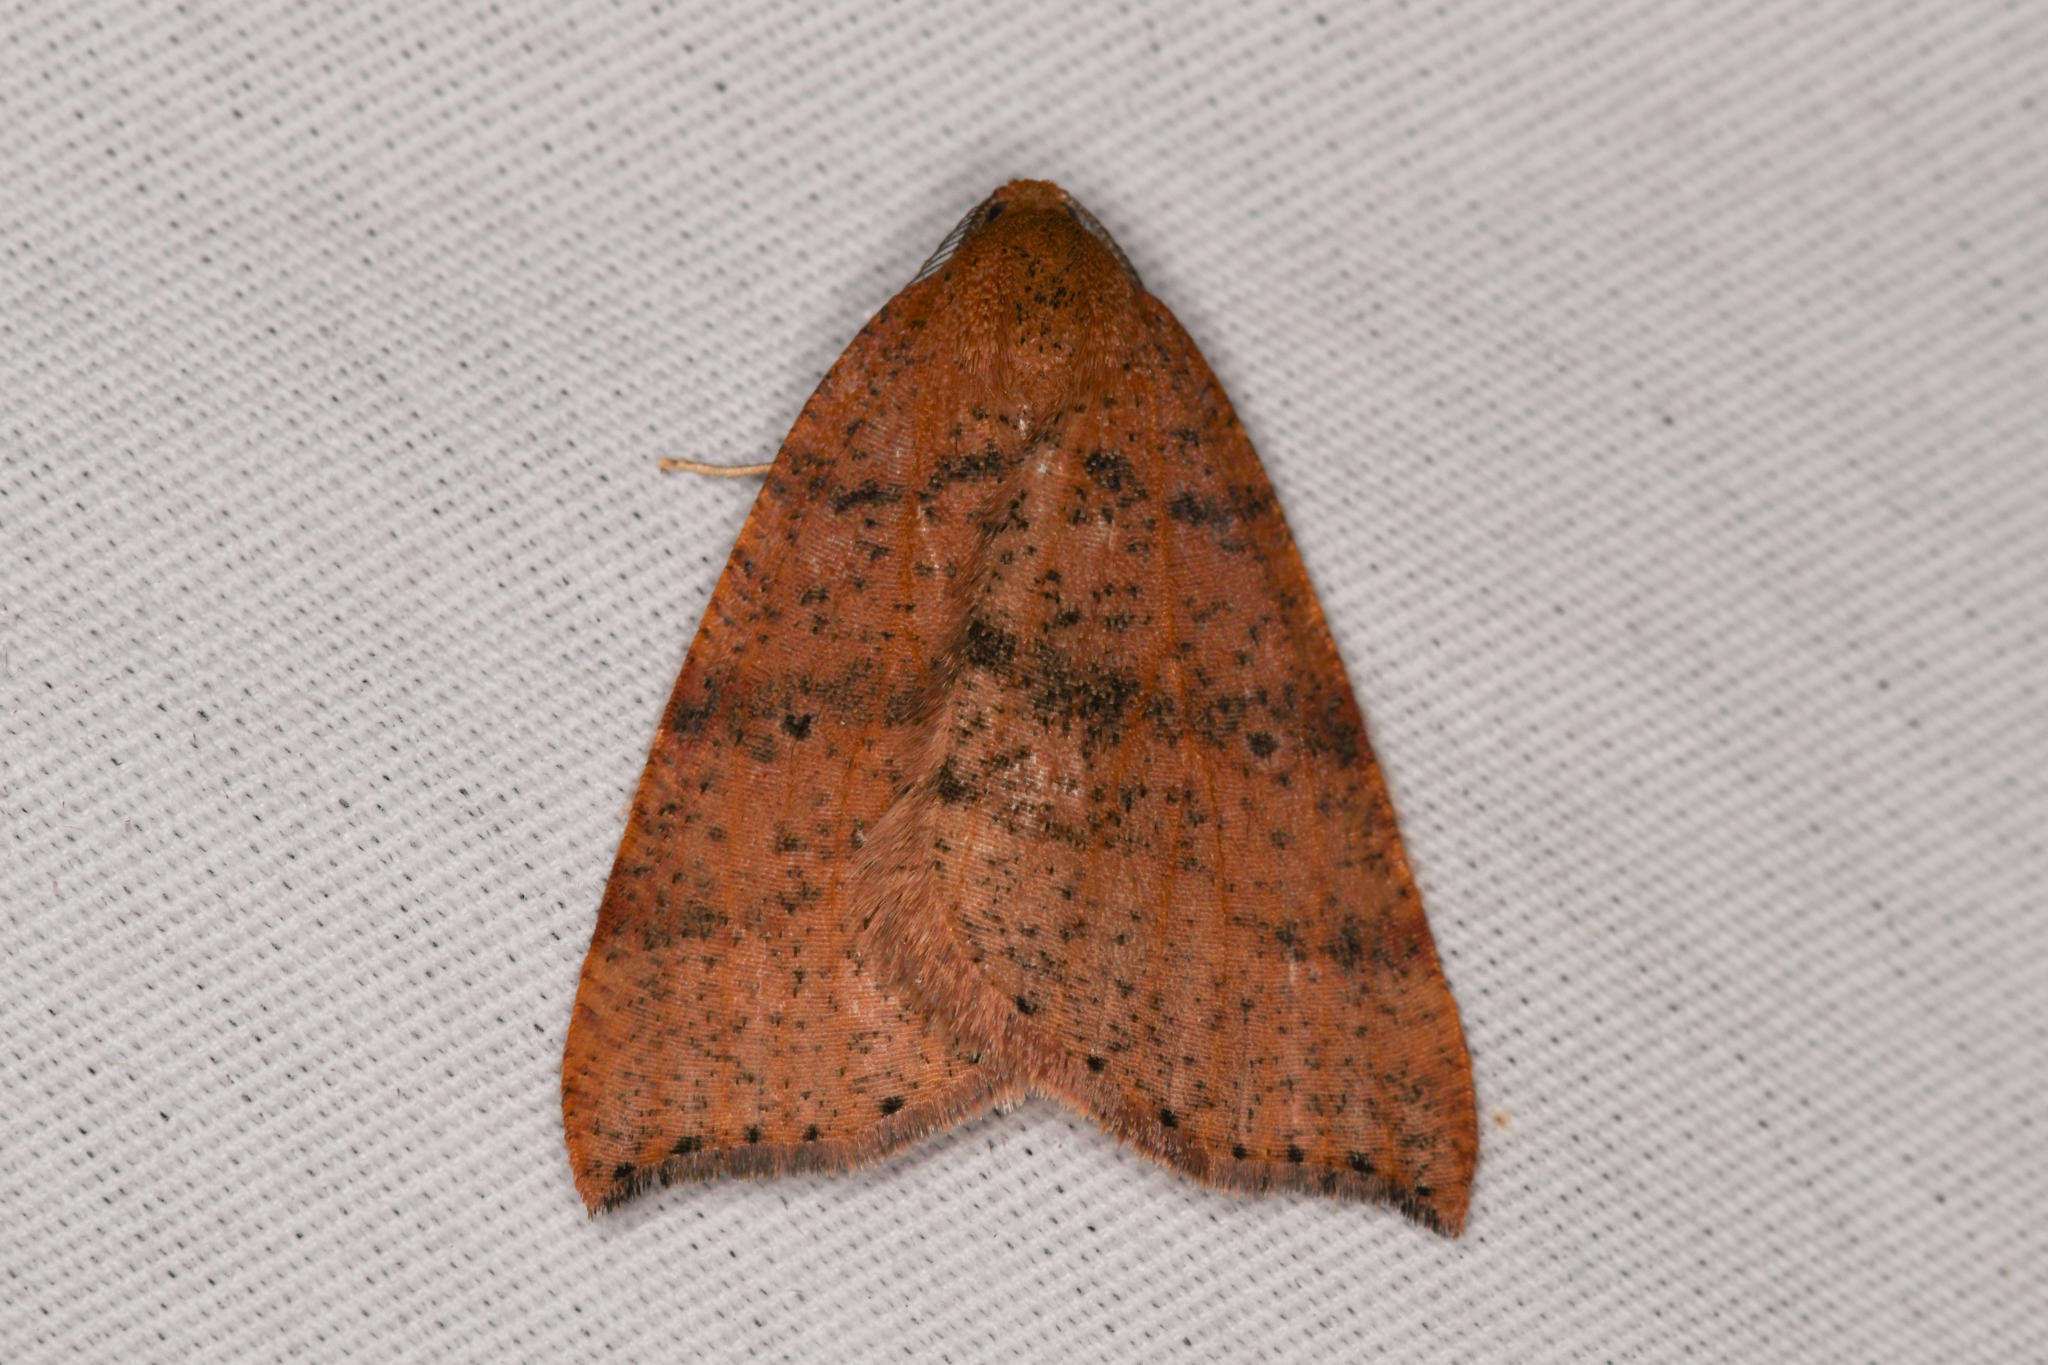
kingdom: Animalia
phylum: Arthropoda
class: Insecta
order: Lepidoptera
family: Geometridae
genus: Drepanulatrix
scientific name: Drepanulatrix falcataria
